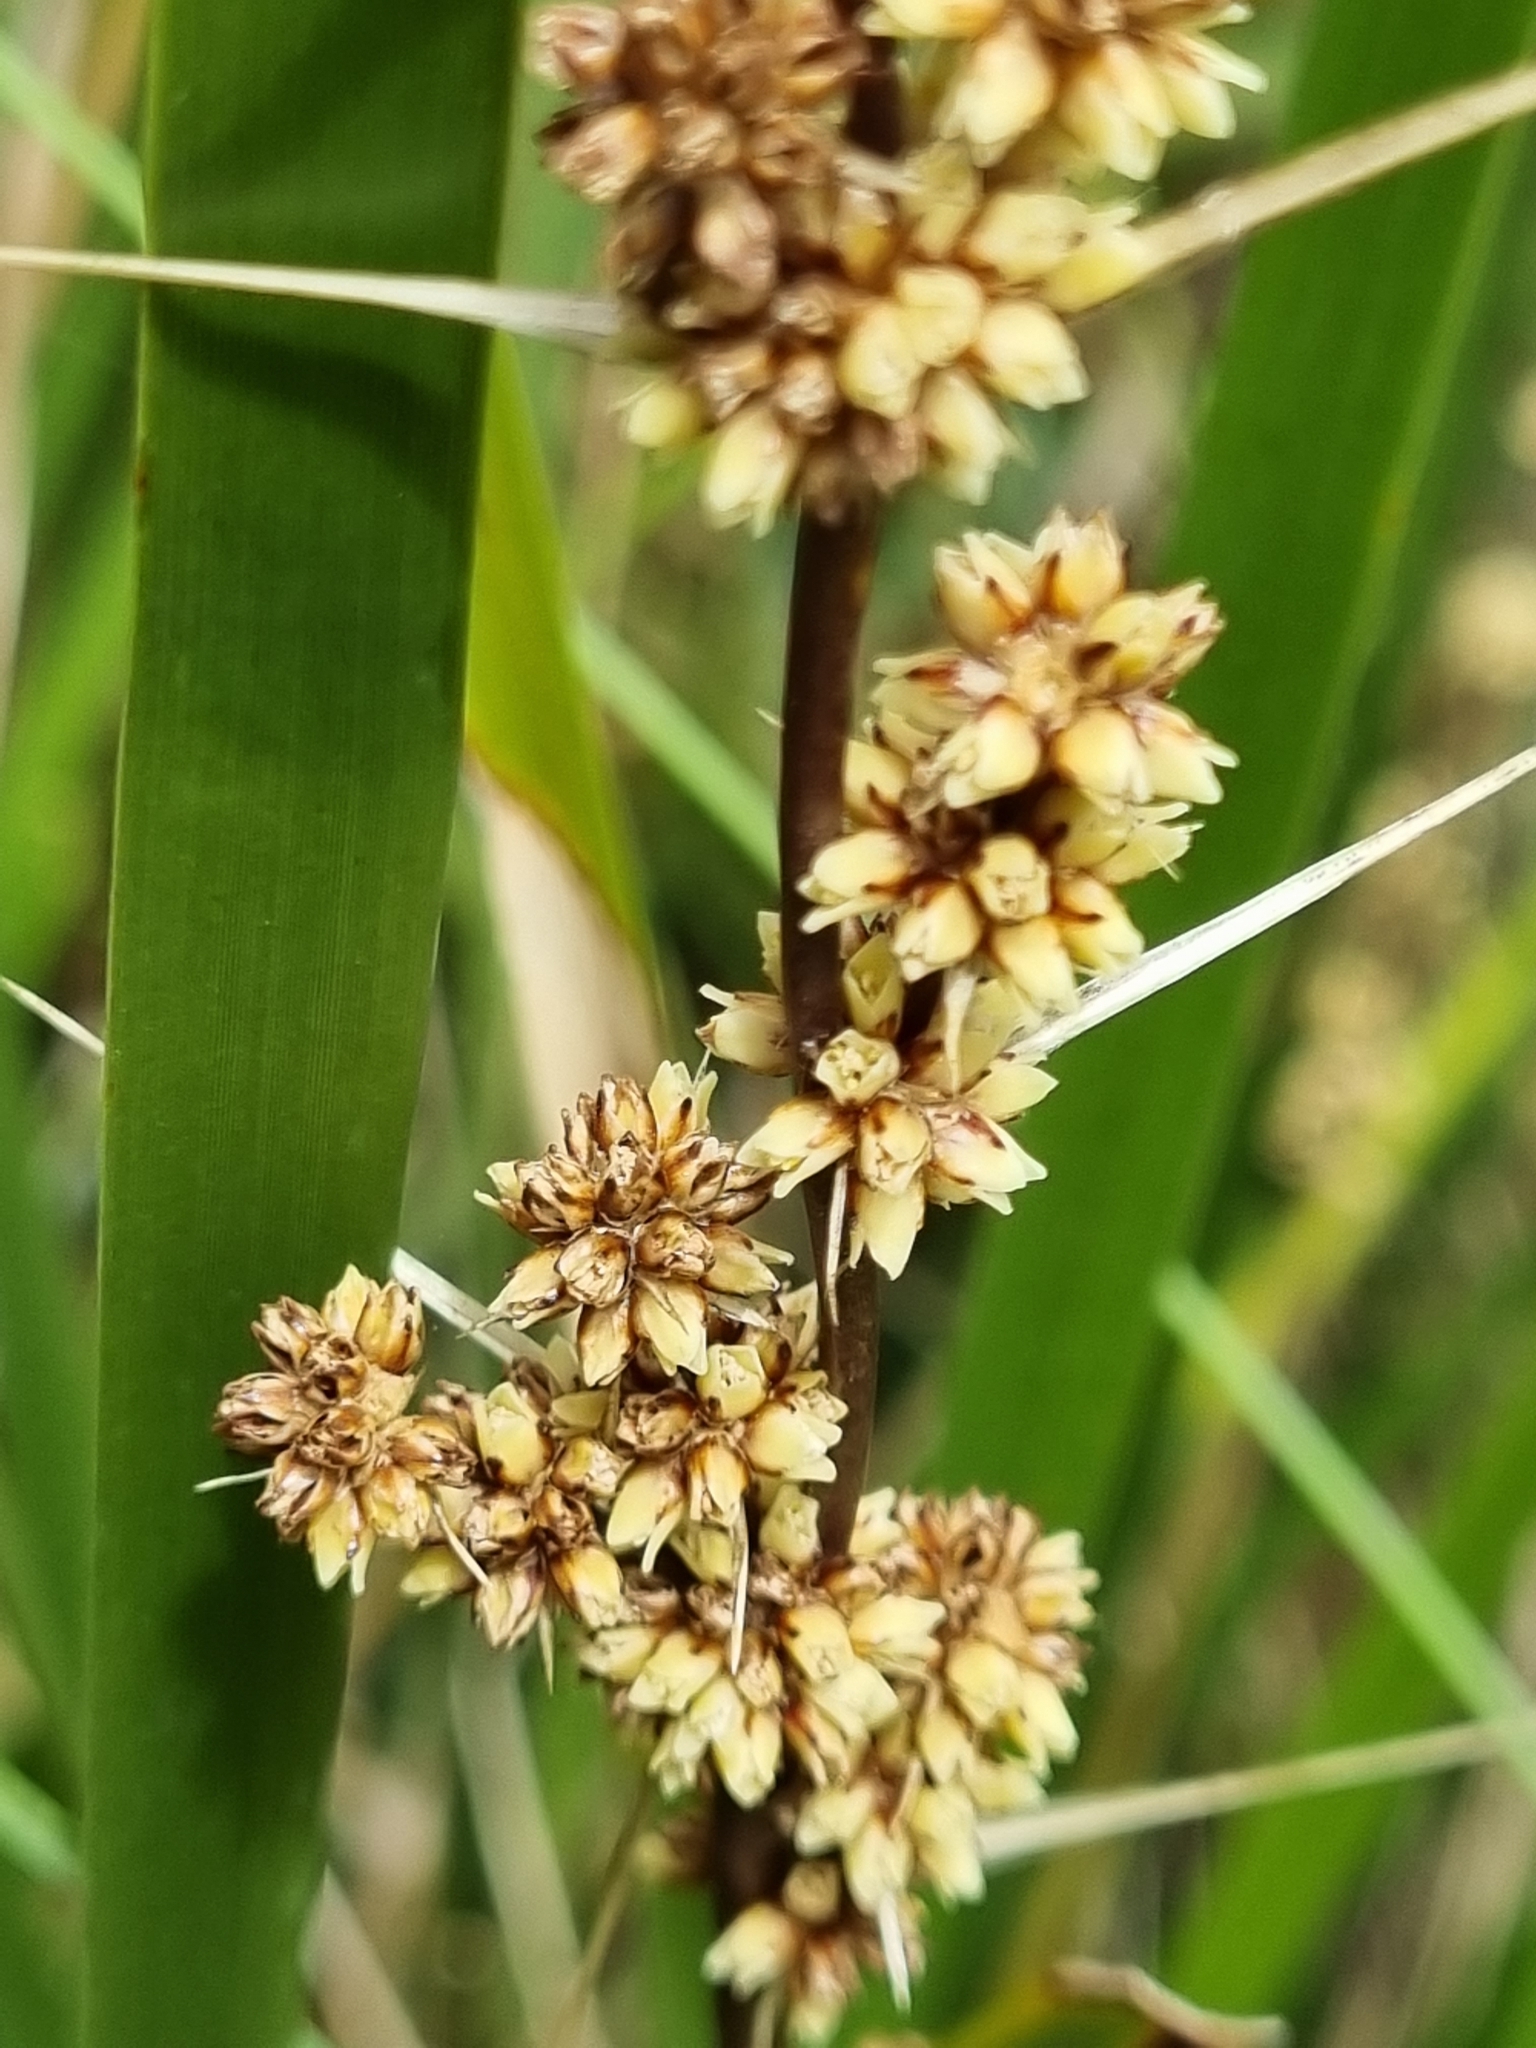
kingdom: Plantae
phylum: Tracheophyta
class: Liliopsida
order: Asparagales
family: Asparagaceae
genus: Lomandra
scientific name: Lomandra longifolia
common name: Longleaf mat-rush
